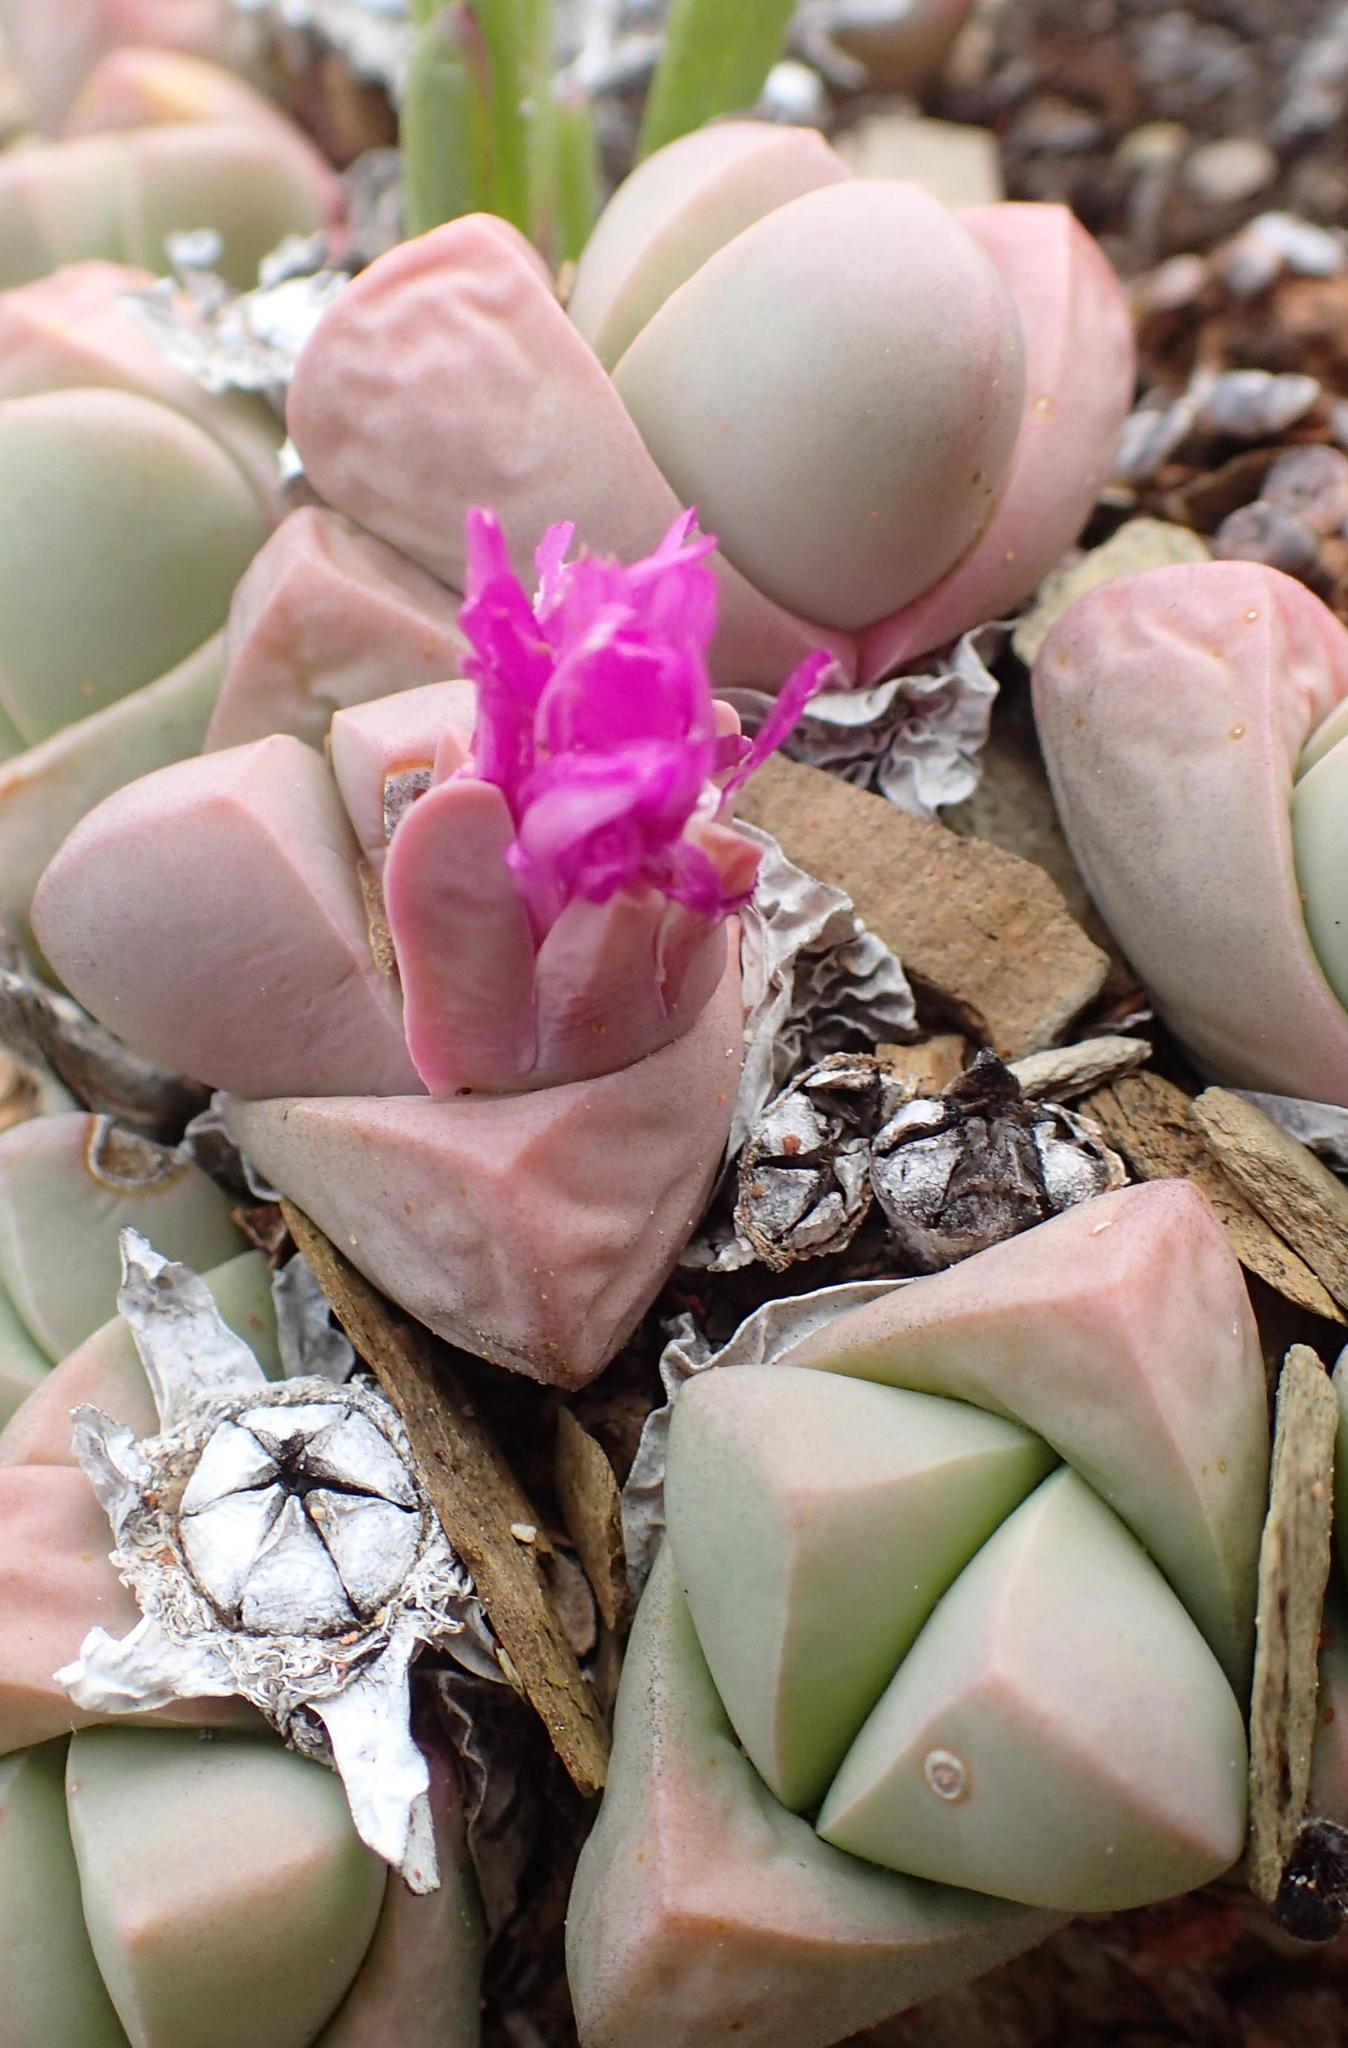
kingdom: Plantae
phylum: Tracheophyta
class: Magnoliopsida
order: Caryophyllales
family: Aizoaceae
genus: Gibbaeum
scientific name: Gibbaeum petrense
